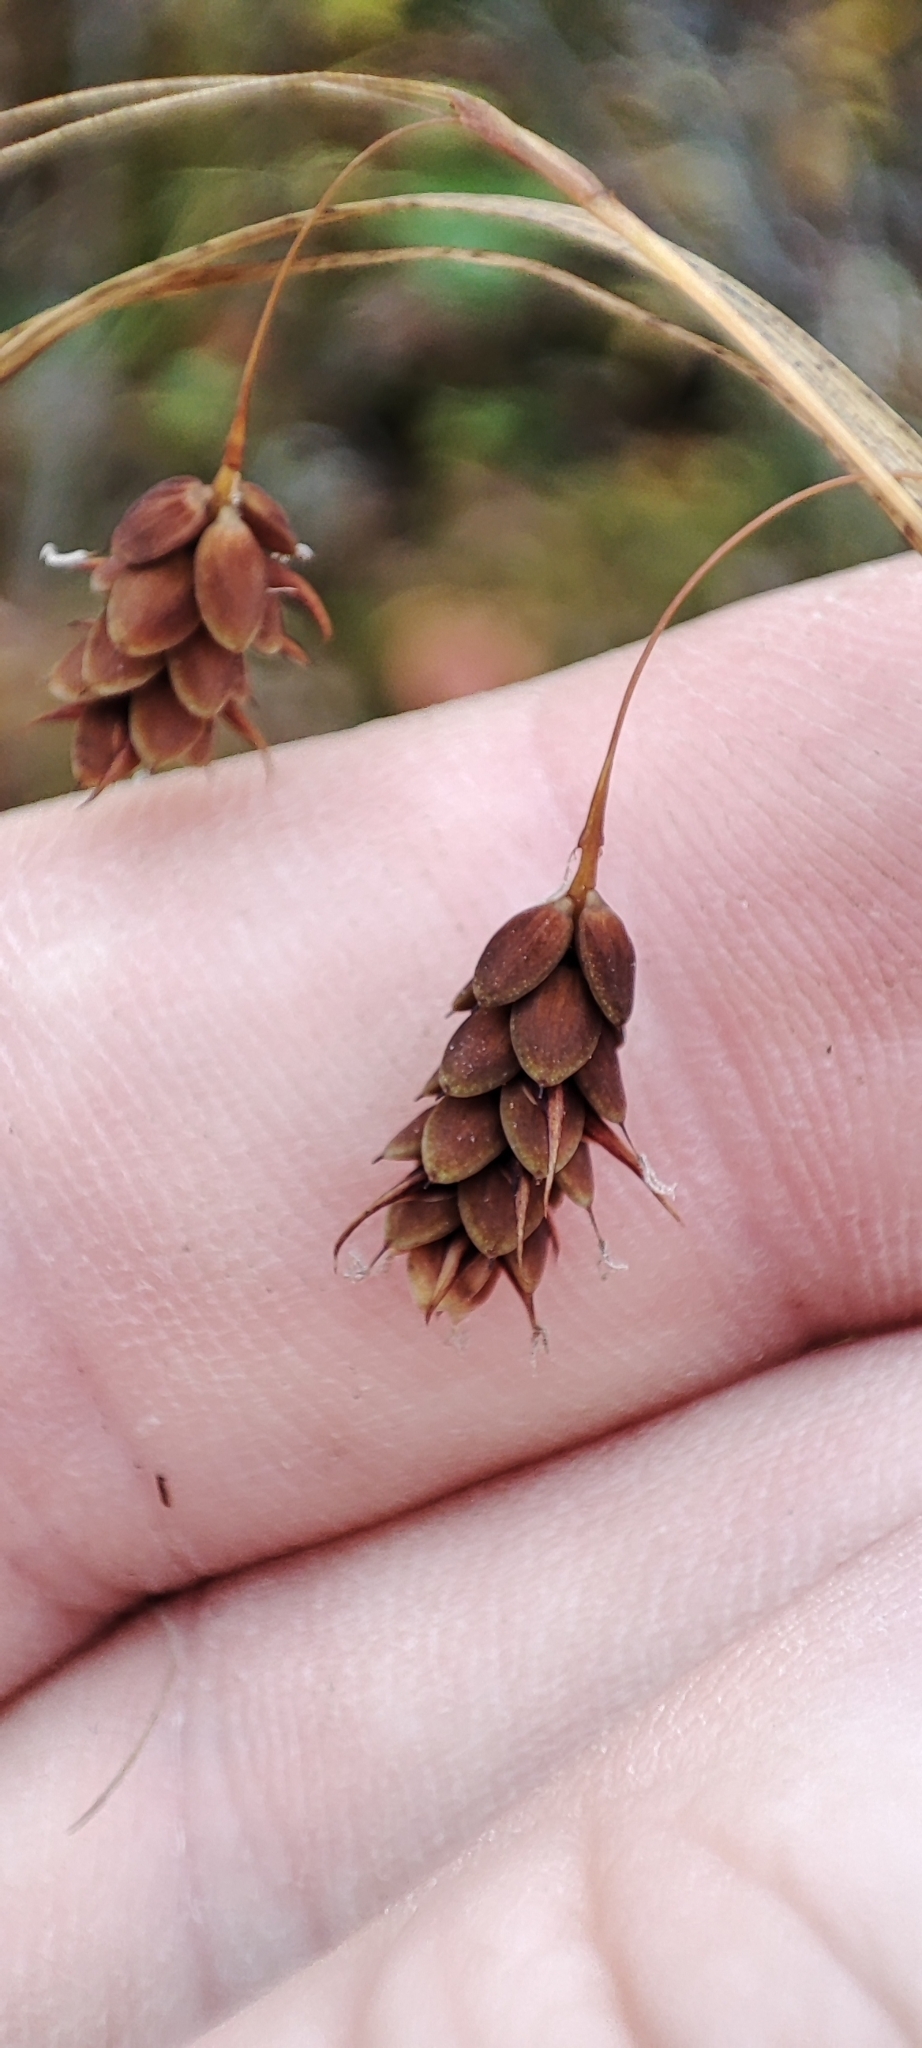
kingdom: Plantae
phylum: Tracheophyta
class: Liliopsida
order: Poales
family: Cyperaceae
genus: Carex
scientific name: Carex magellanica
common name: Bog sedge
